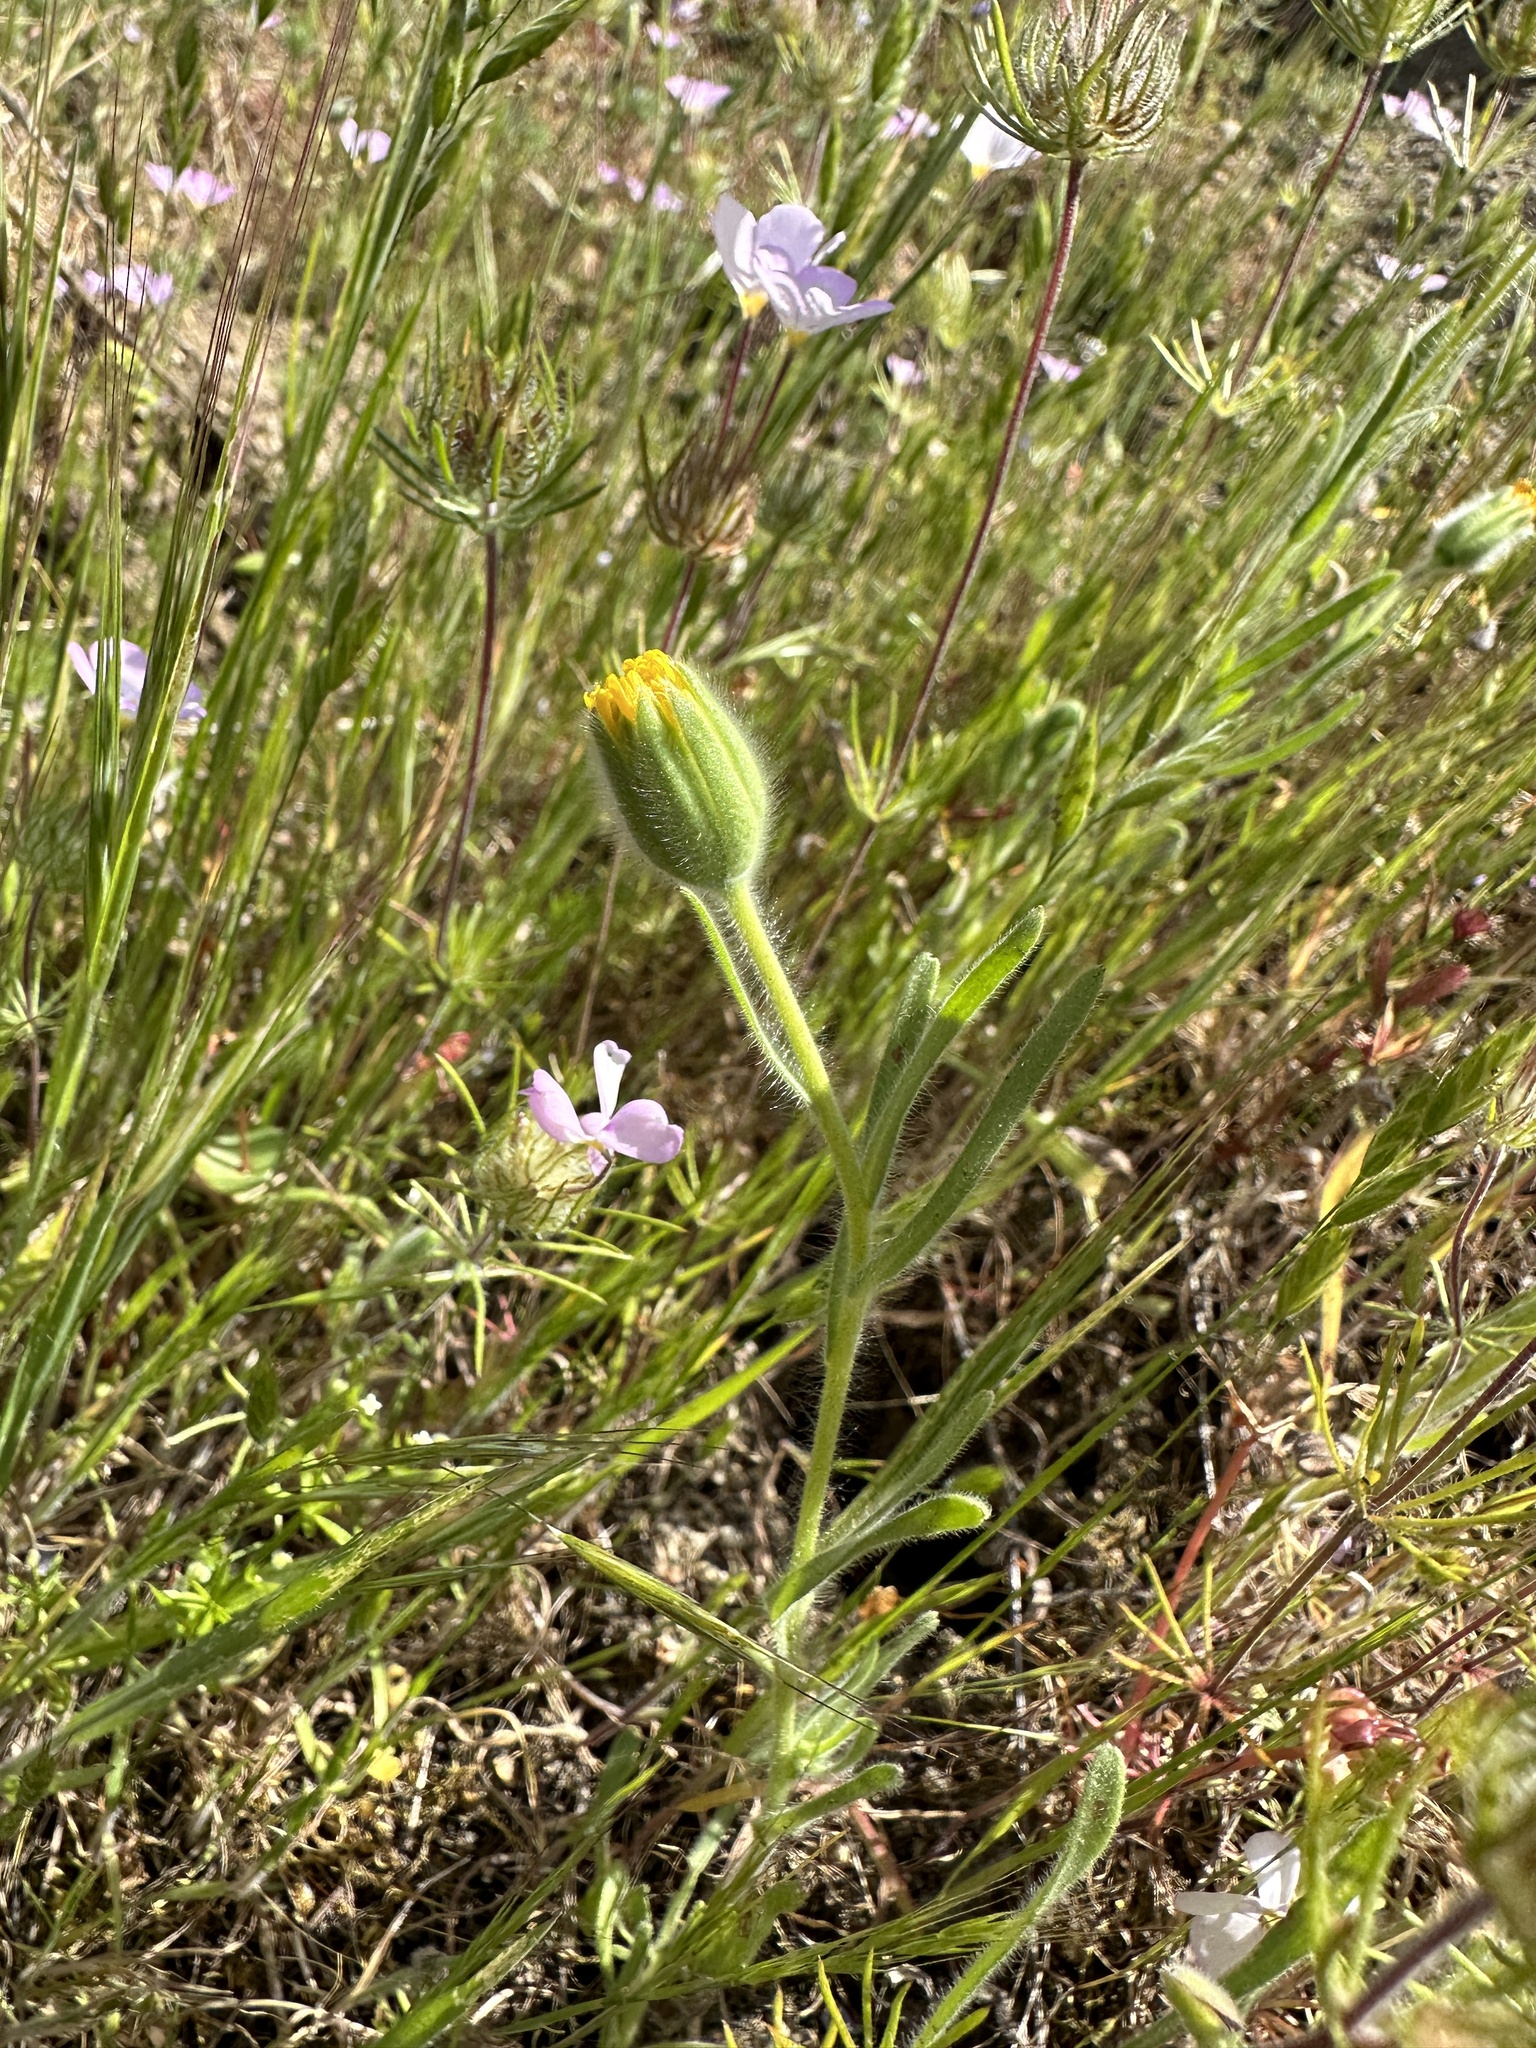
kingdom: Plantae
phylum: Tracheophyta
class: Magnoliopsida
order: Asterales
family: Asteraceae
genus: Achyrachaena
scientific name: Achyrachaena mollis
